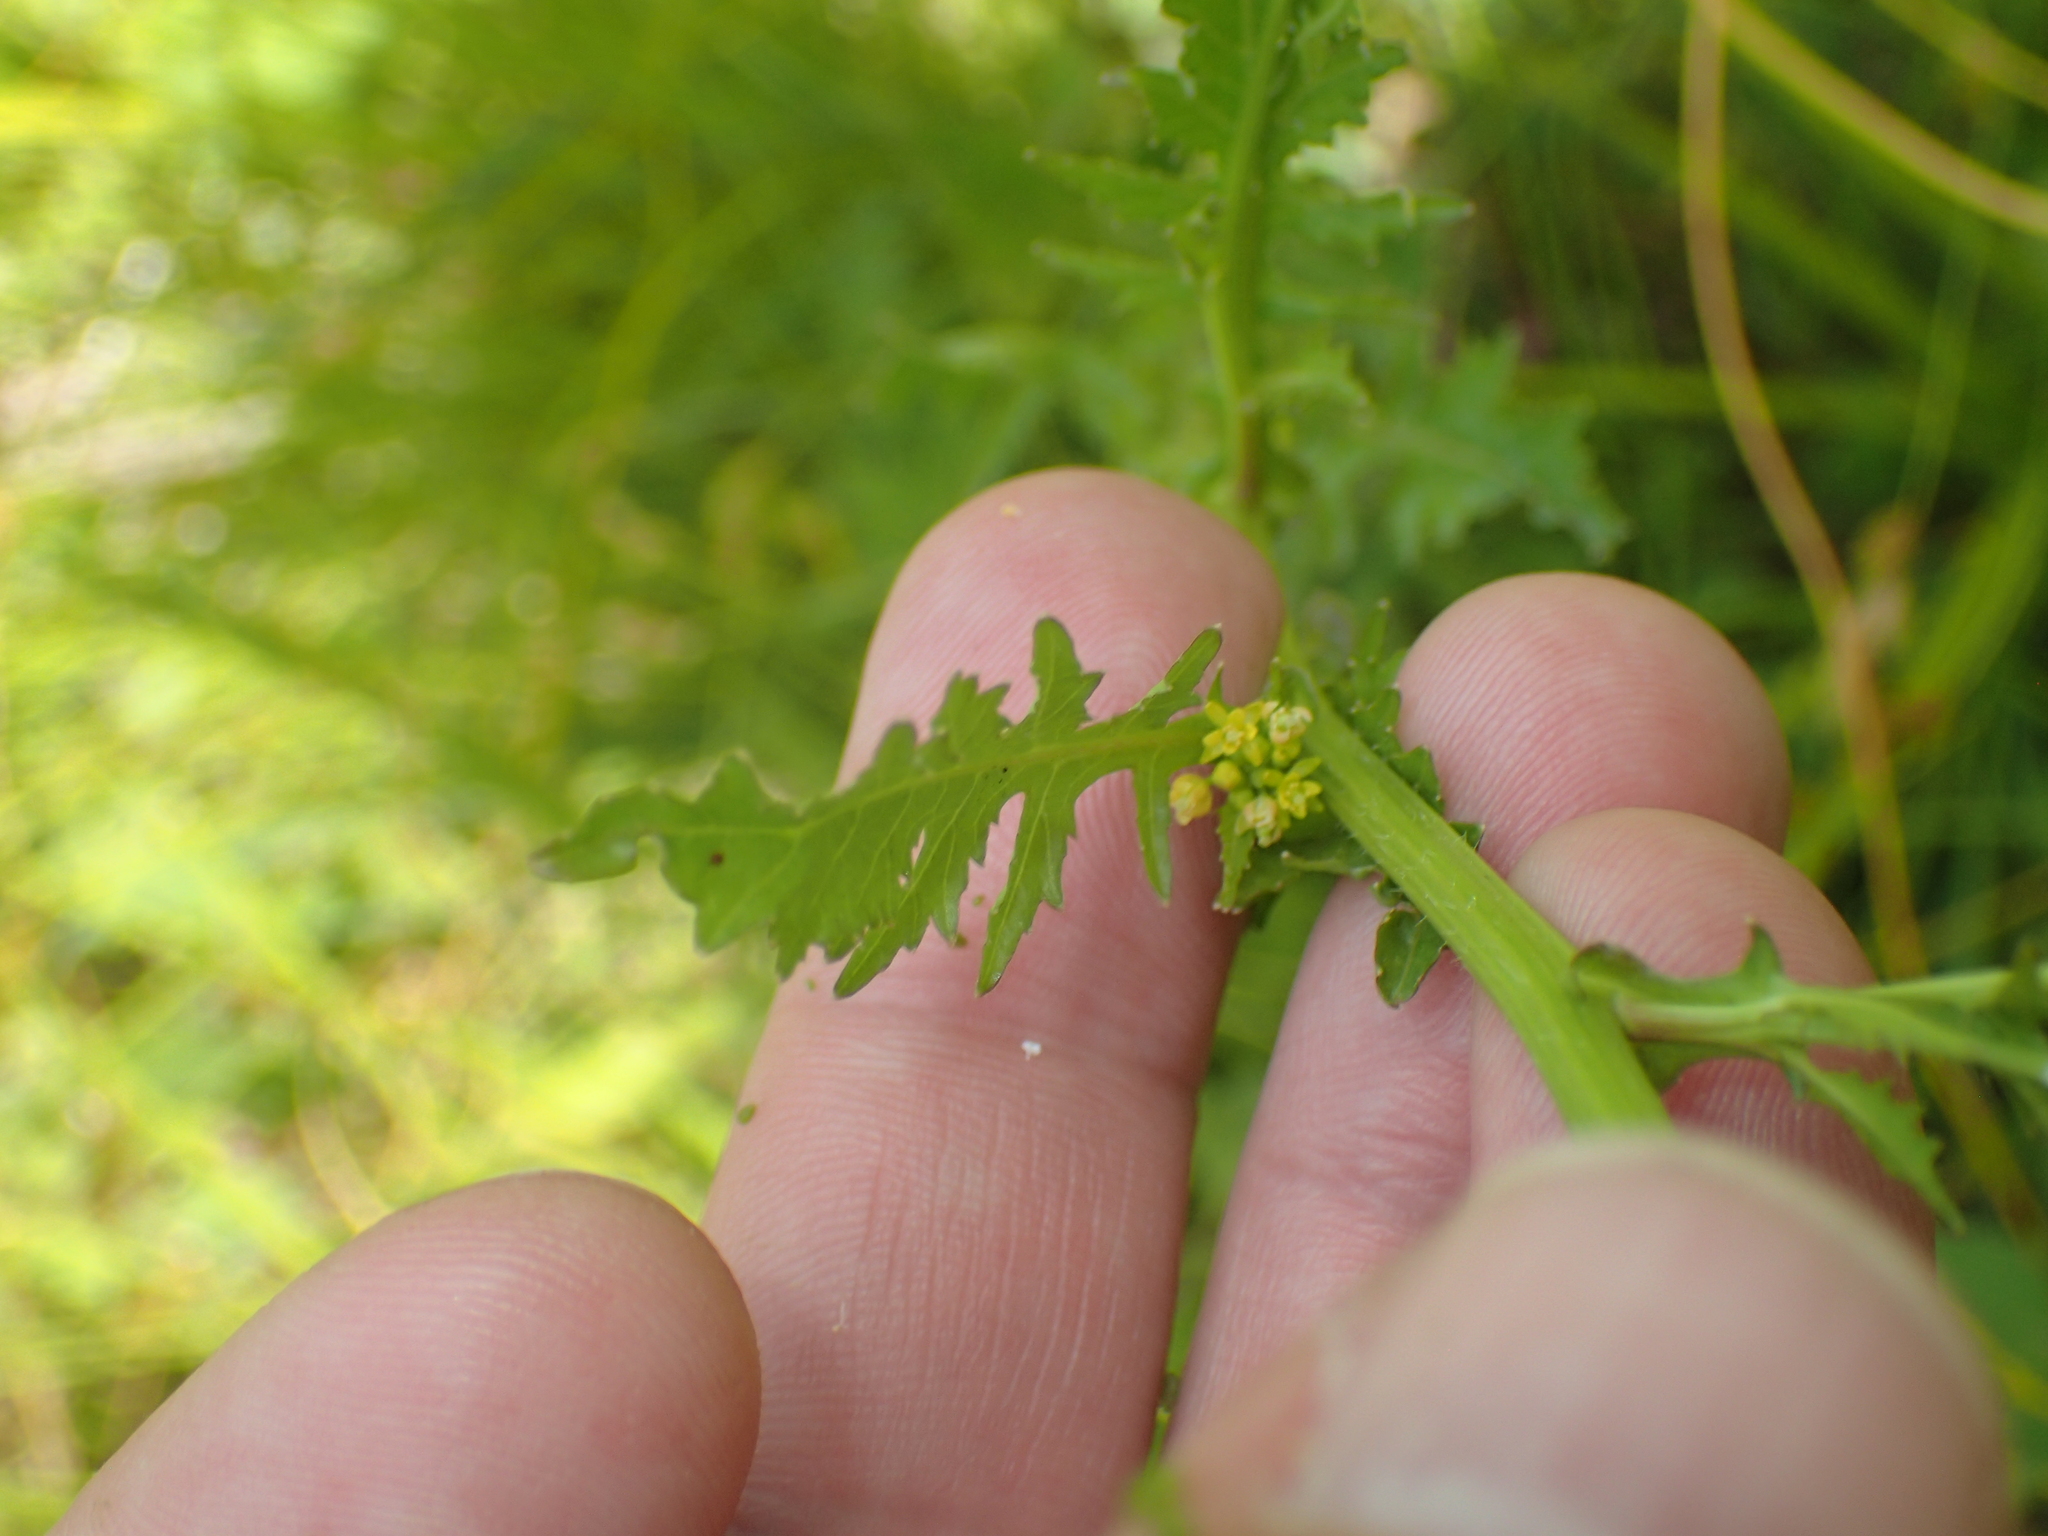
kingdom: Plantae
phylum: Tracheophyta
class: Magnoliopsida
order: Brassicales
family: Brassicaceae
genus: Rorippa
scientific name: Rorippa palustris
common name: Marsh yellow-cress
